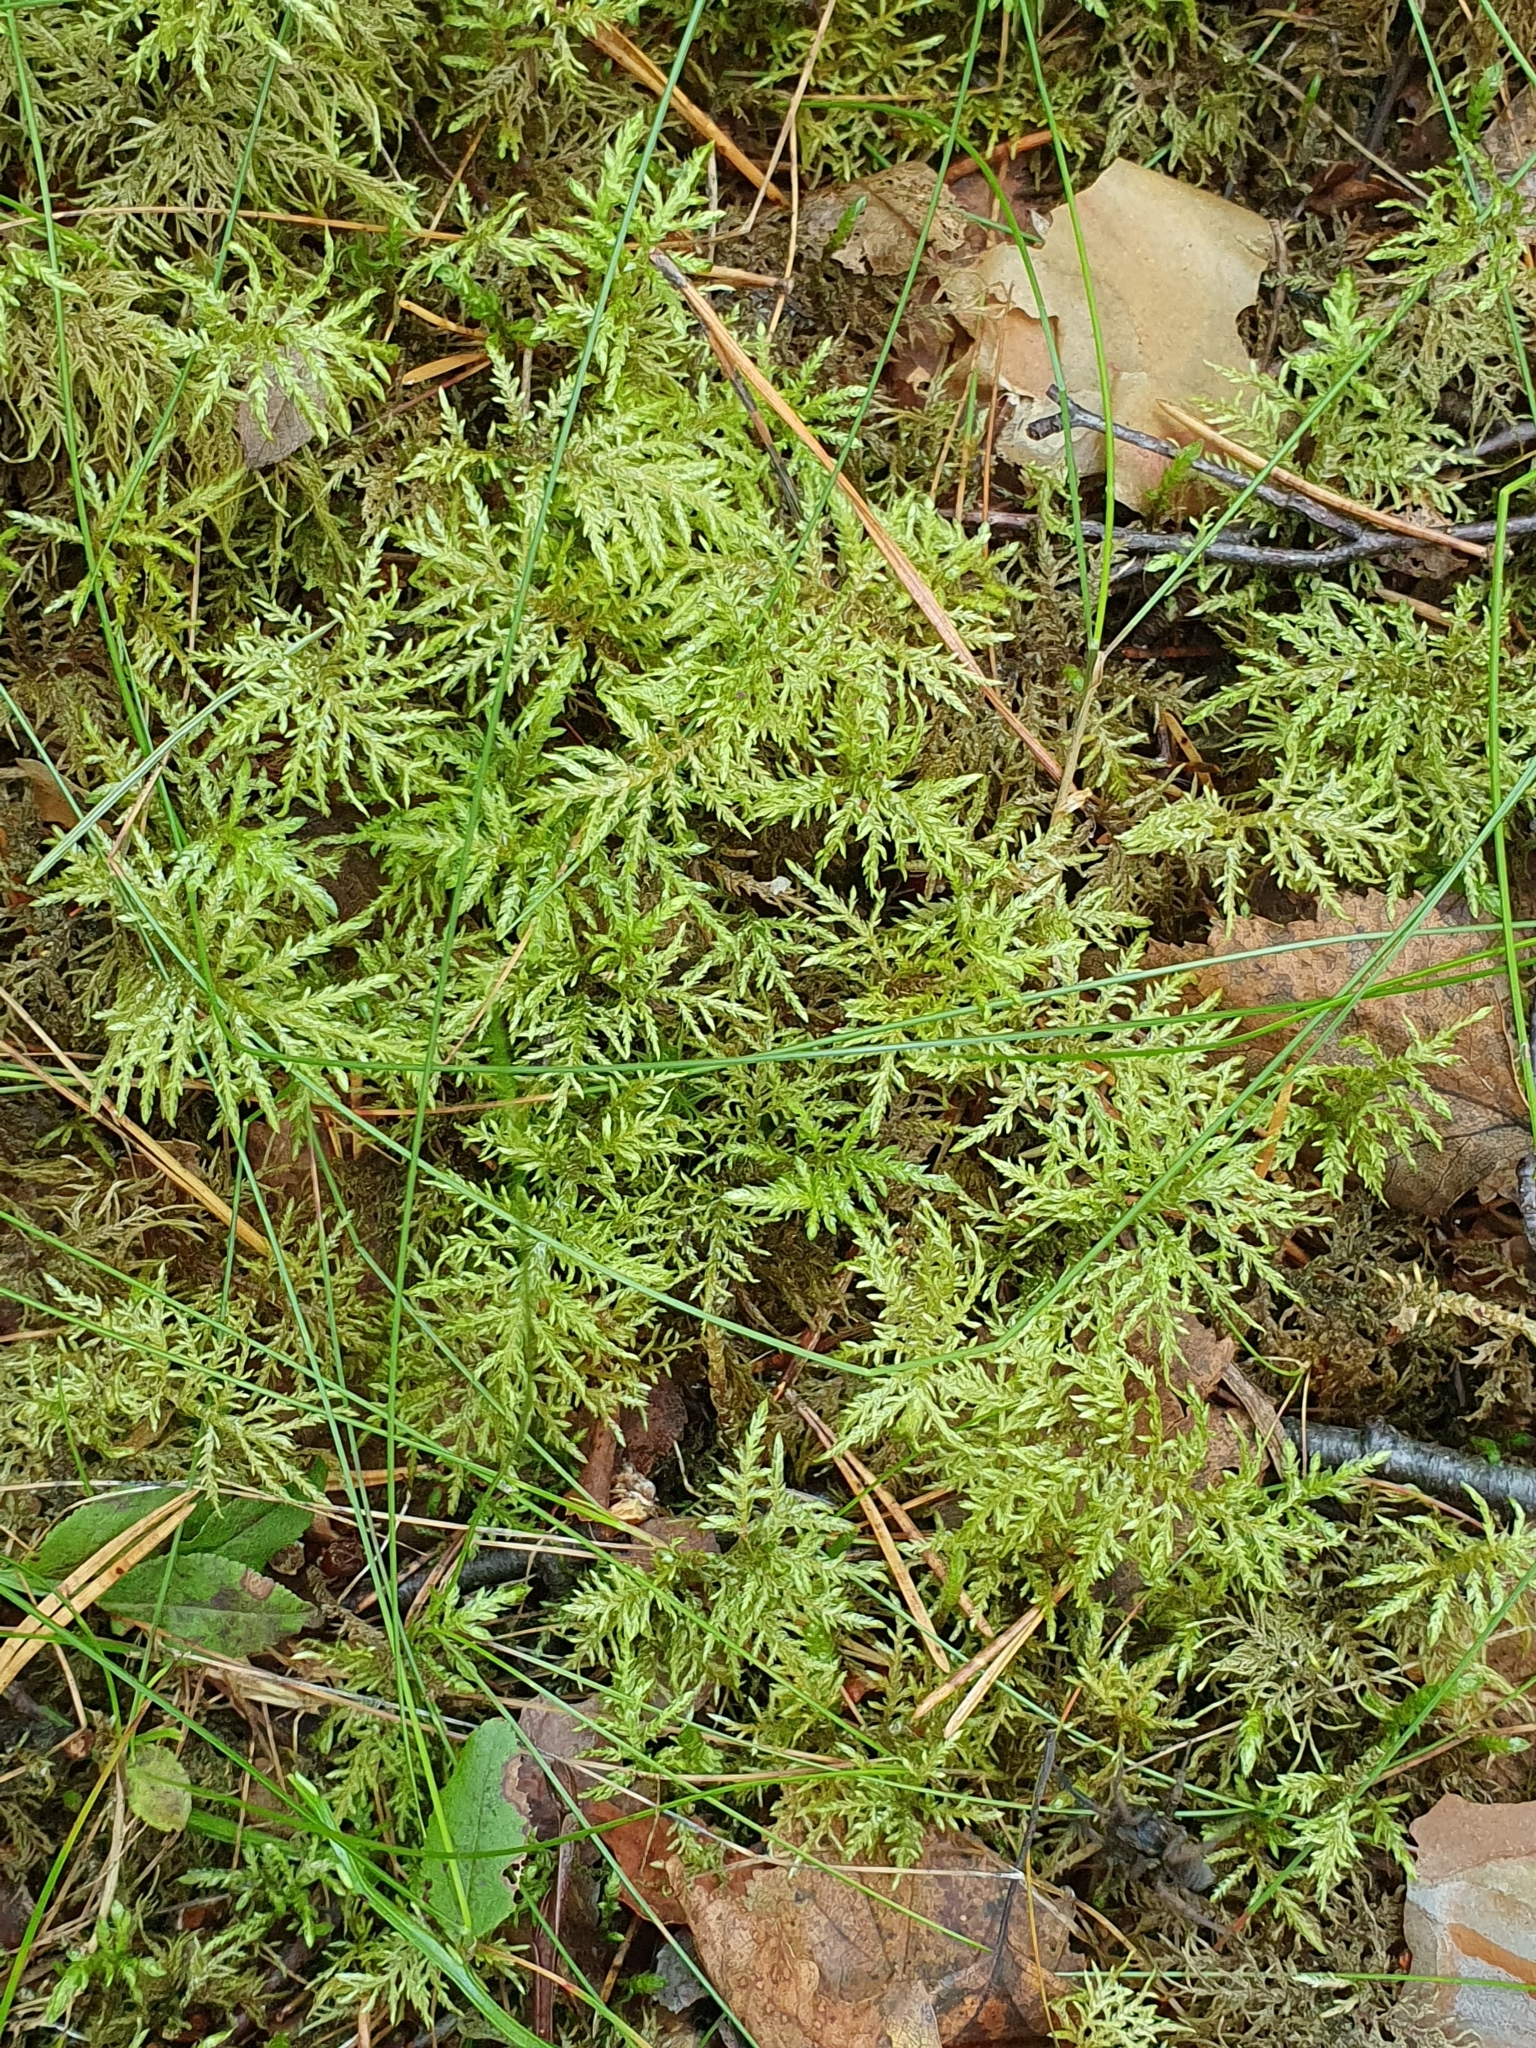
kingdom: Plantae
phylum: Bryophyta
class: Bryopsida
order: Hypnales
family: Hylocomiaceae
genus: Hylocomium
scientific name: Hylocomium splendens
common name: Stairstep moss
